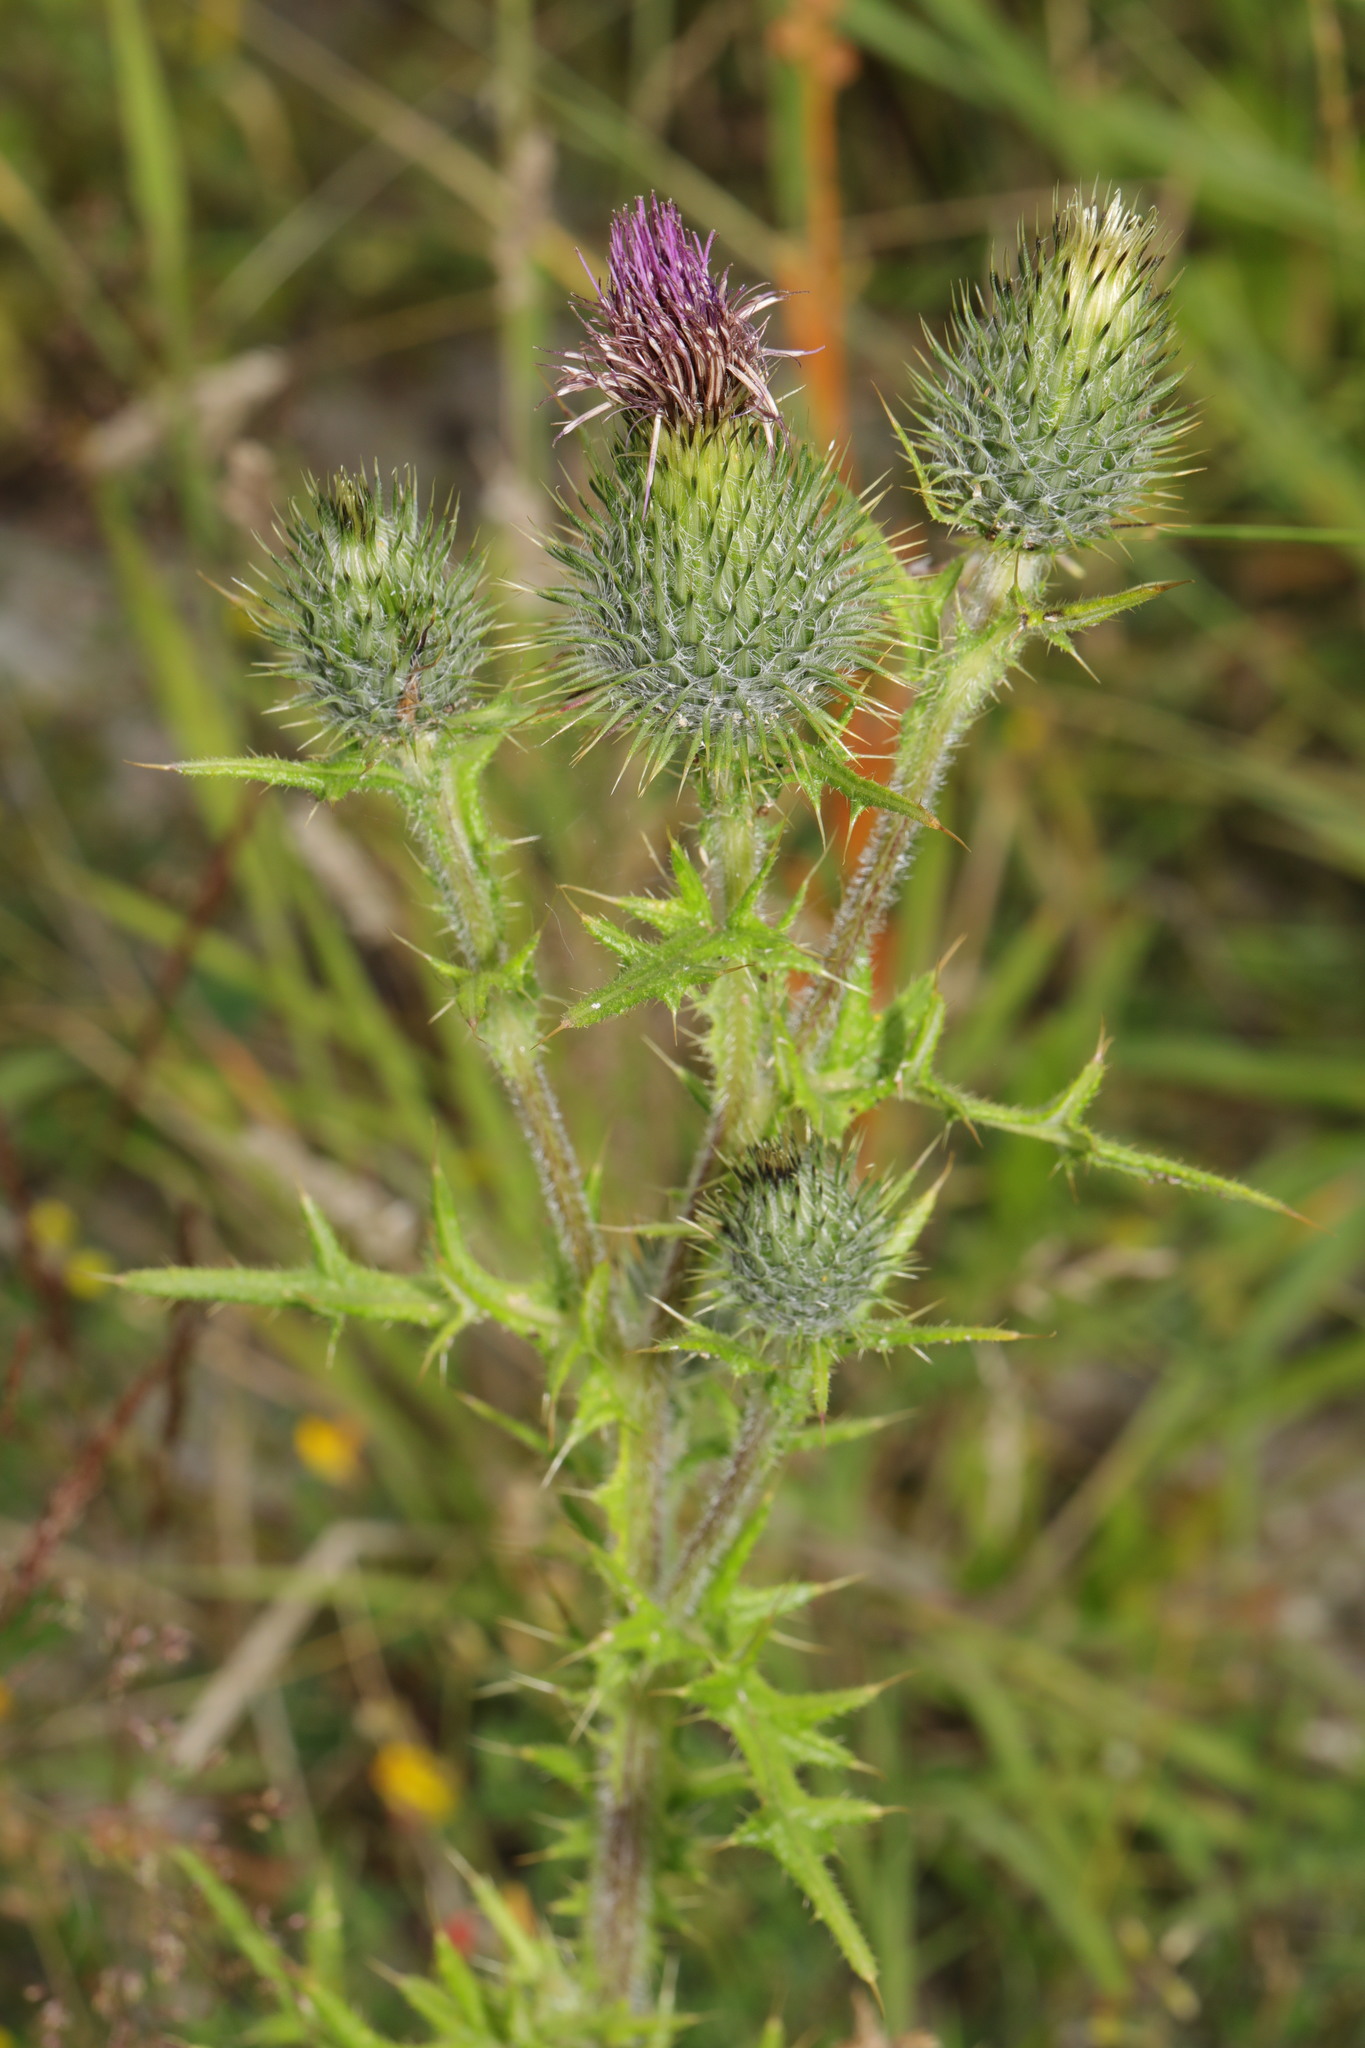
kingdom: Plantae
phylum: Tracheophyta
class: Magnoliopsida
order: Asterales
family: Asteraceae
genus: Cirsium
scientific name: Cirsium vulgare
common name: Bull thistle
